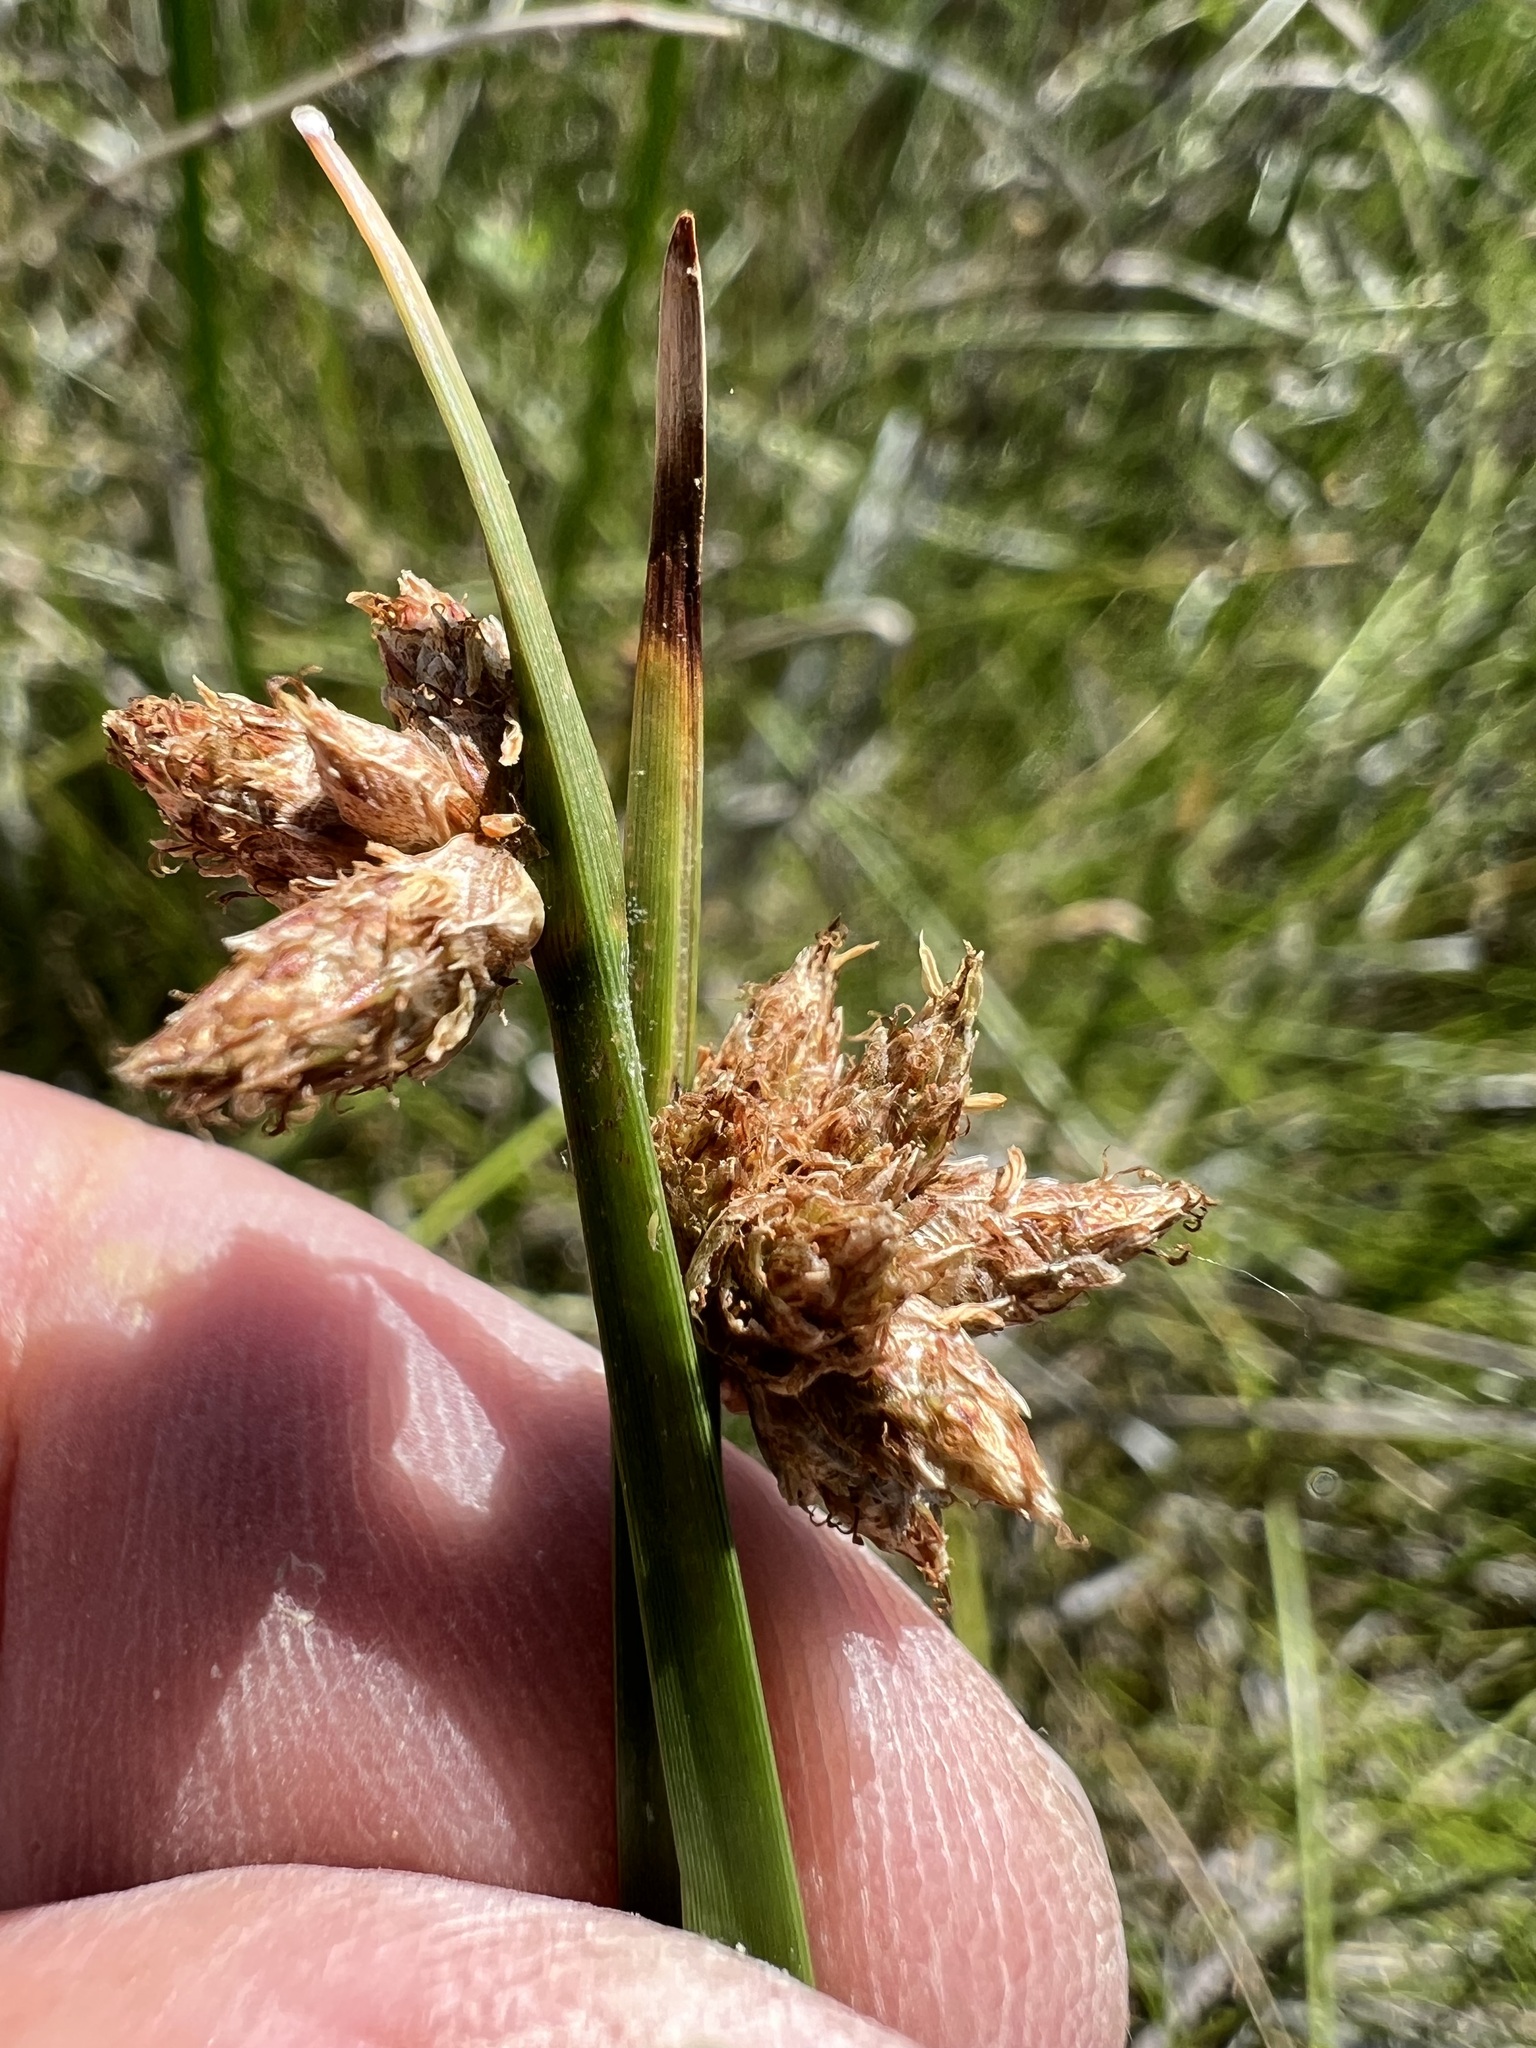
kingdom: Plantae
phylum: Tracheophyta
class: Liliopsida
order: Poales
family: Cyperaceae
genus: Schoenoplectus
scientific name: Schoenoplectus americanus
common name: American three-square bulrush
